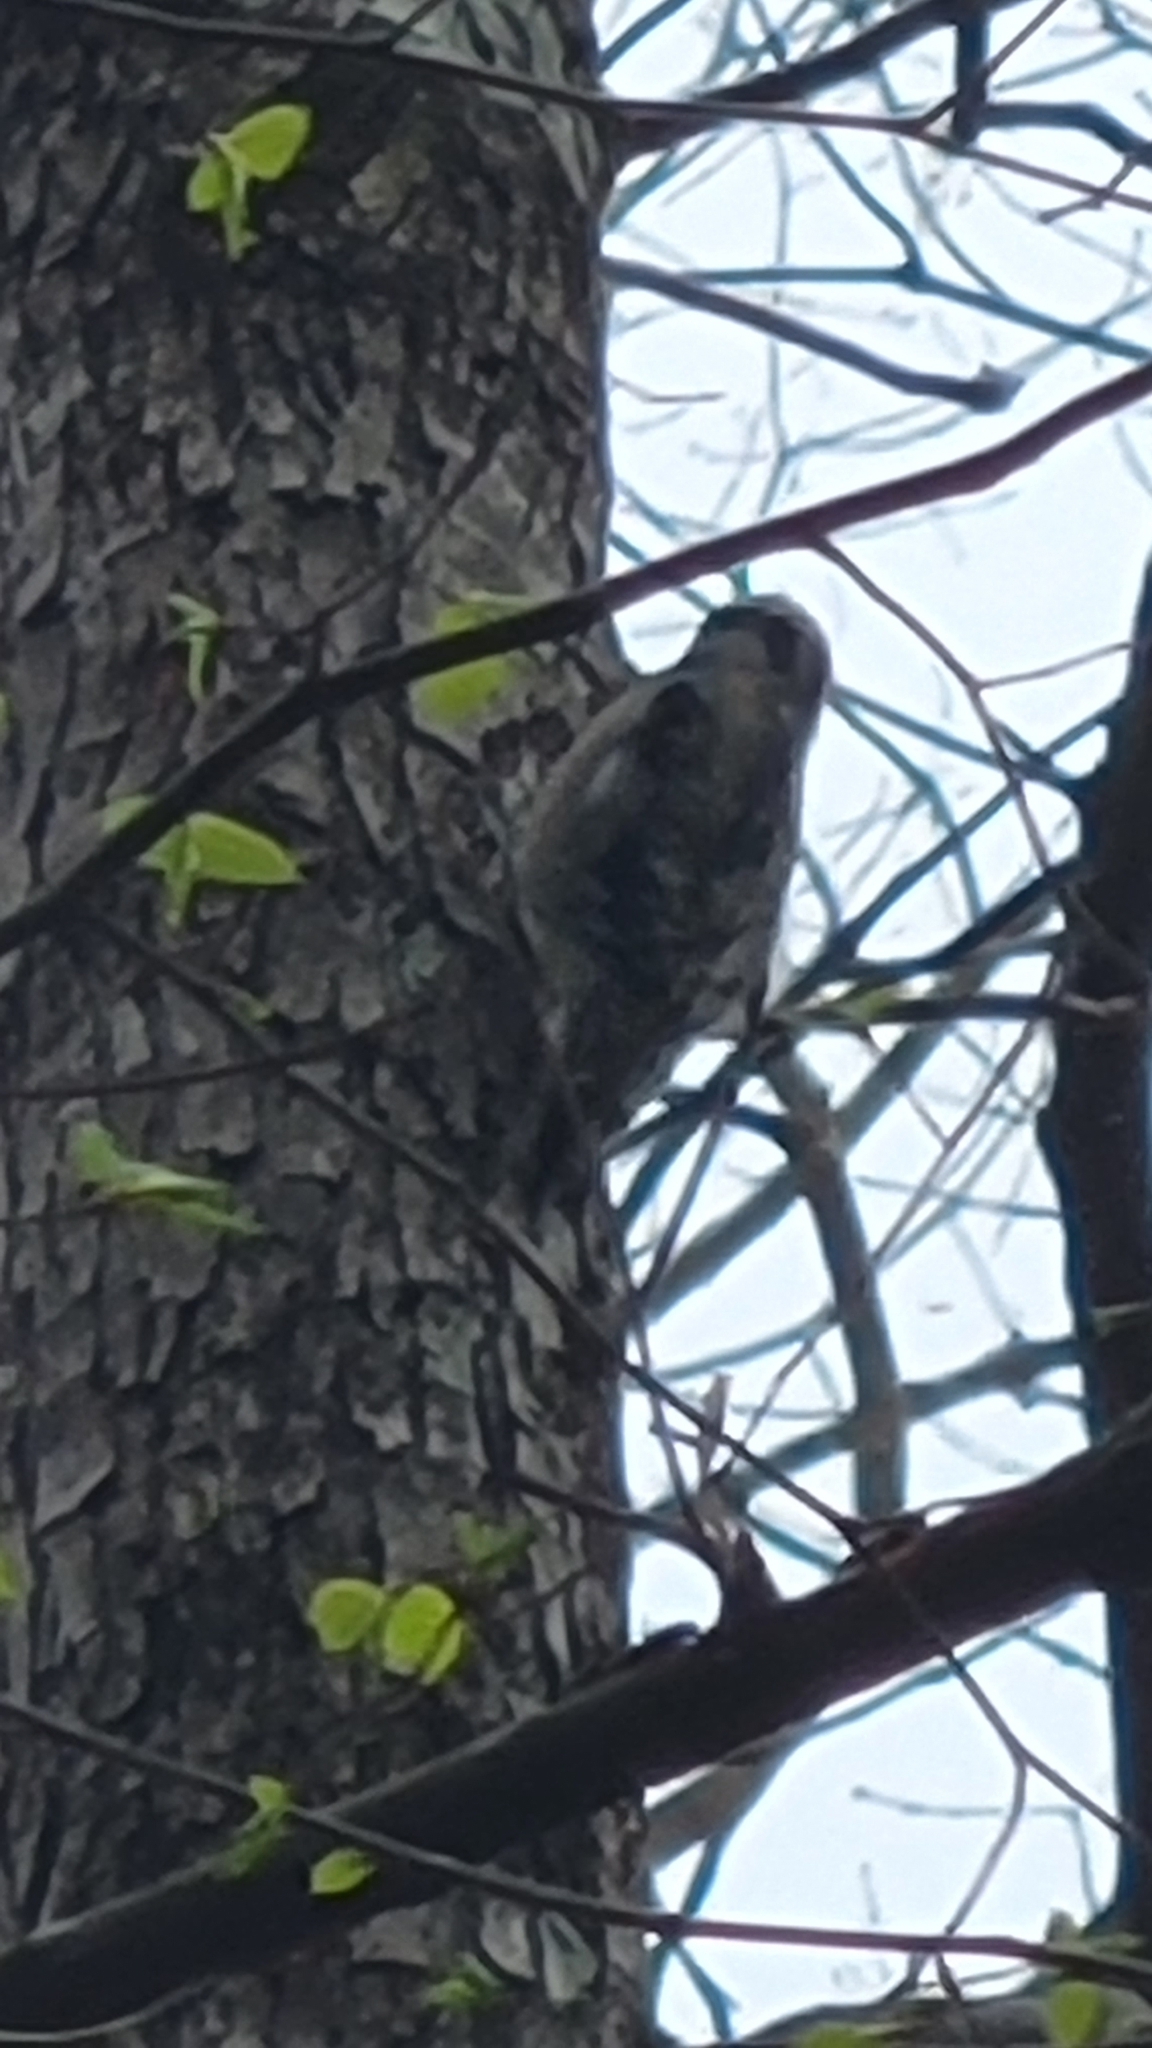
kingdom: Animalia
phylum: Chordata
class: Aves
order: Piciformes
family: Picidae
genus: Sphyrapicus
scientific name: Sphyrapicus varius
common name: Yellow-bellied sapsucker
